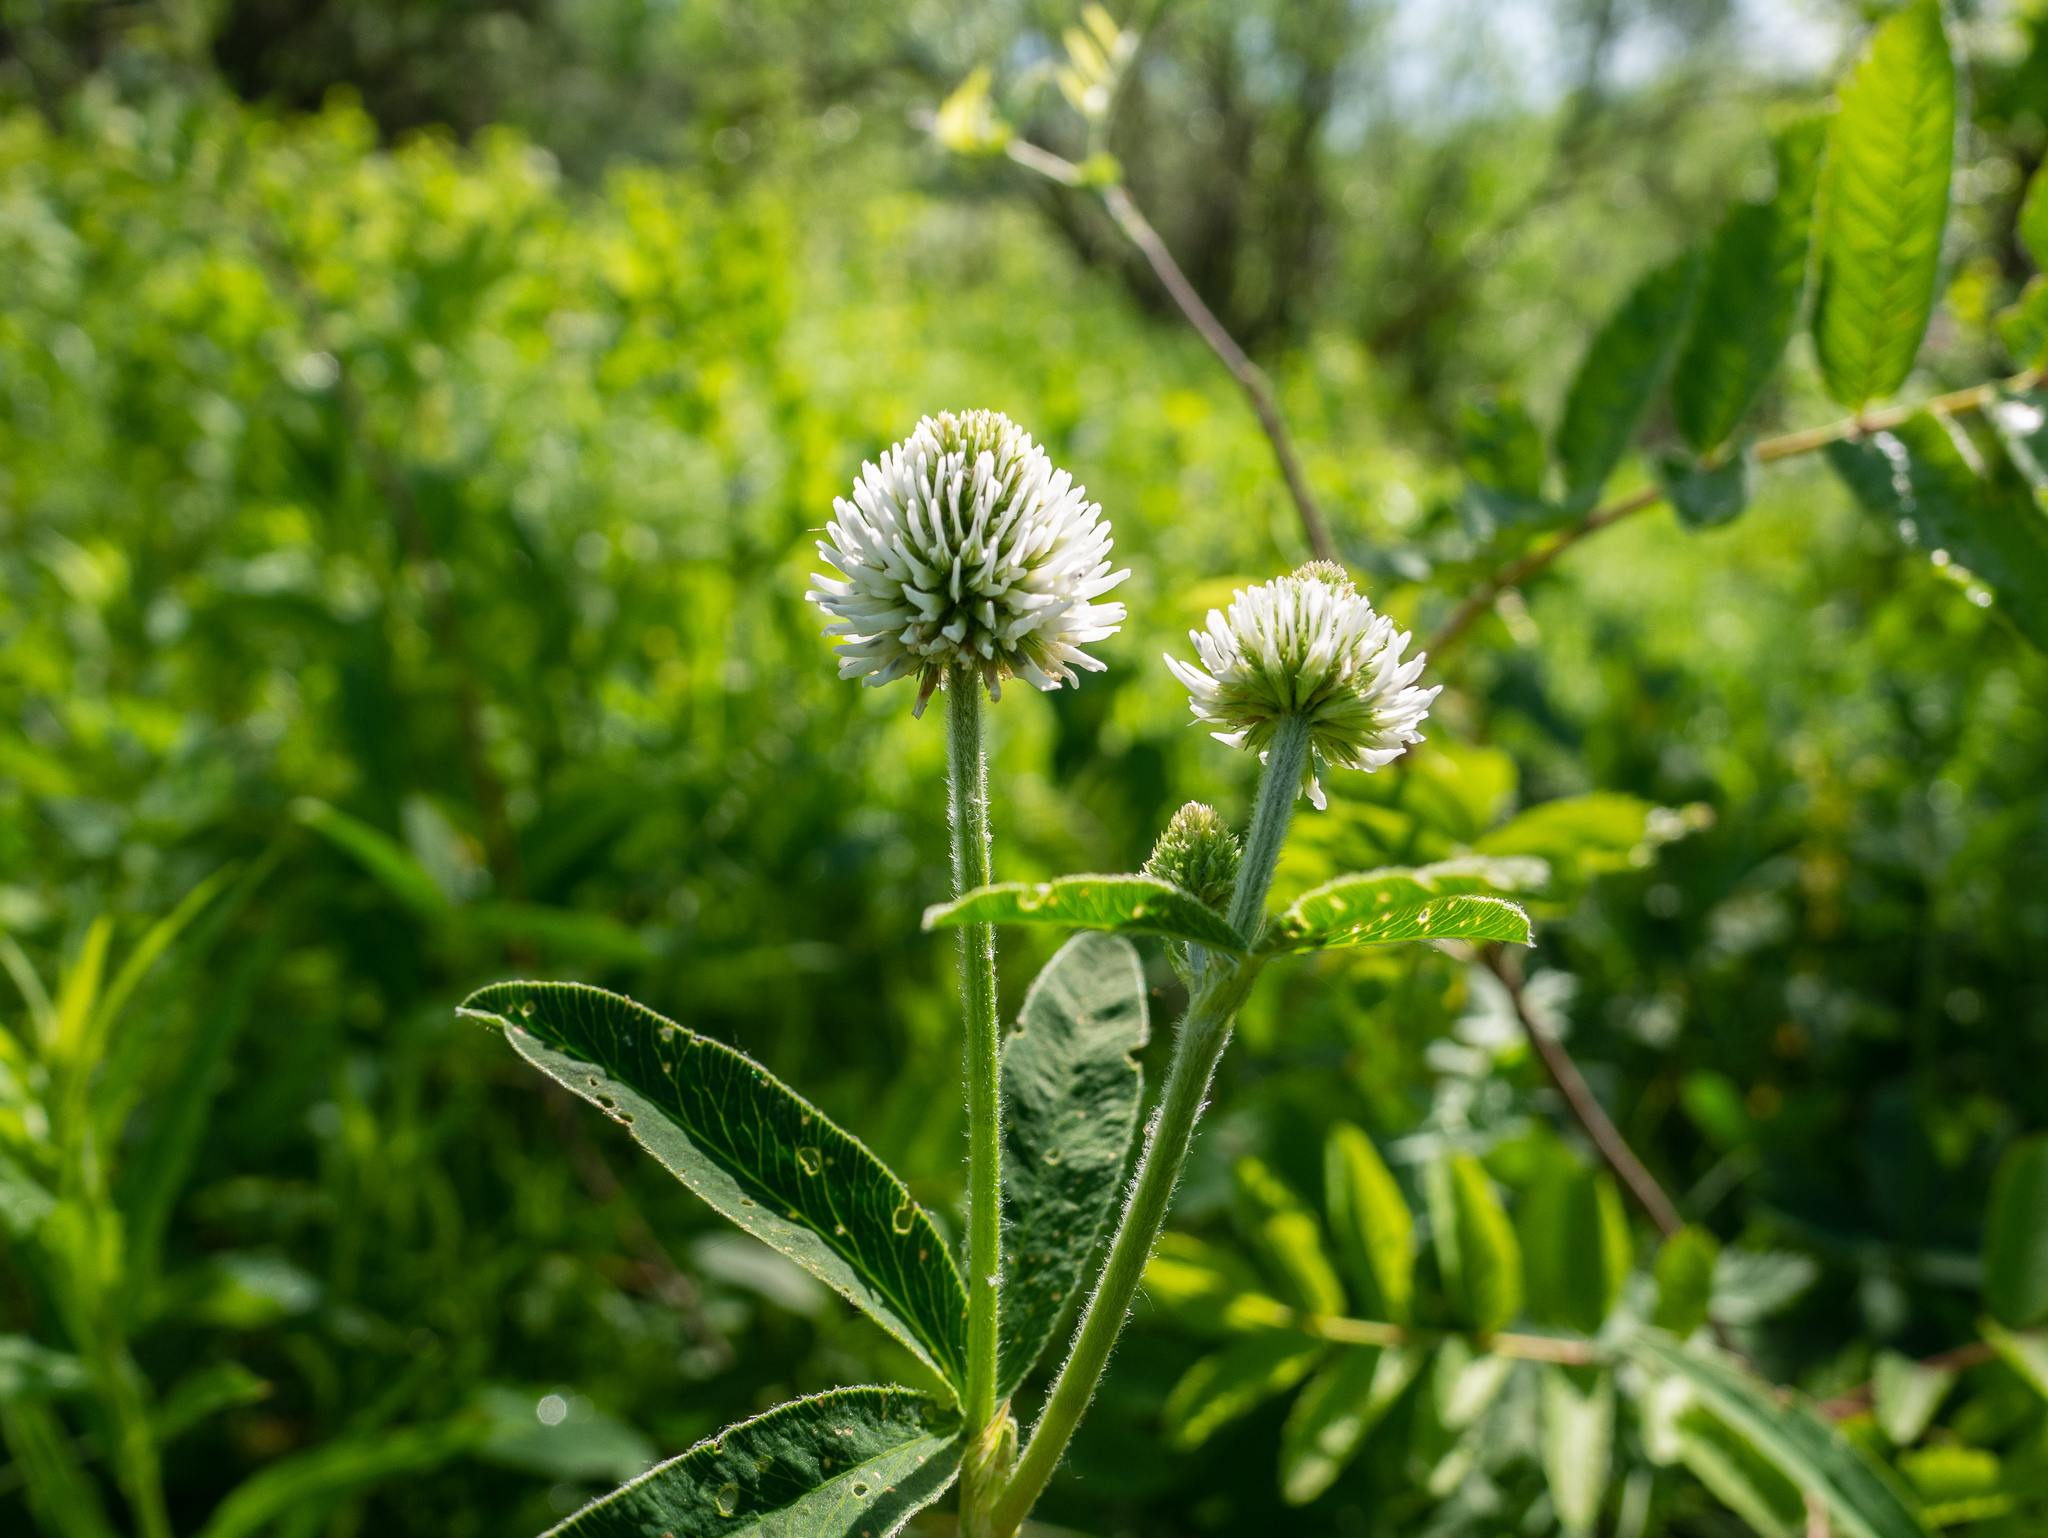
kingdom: Plantae
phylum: Tracheophyta
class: Magnoliopsida
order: Fabales
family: Fabaceae
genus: Trifolium
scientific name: Trifolium montanum
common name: Mountain clover
